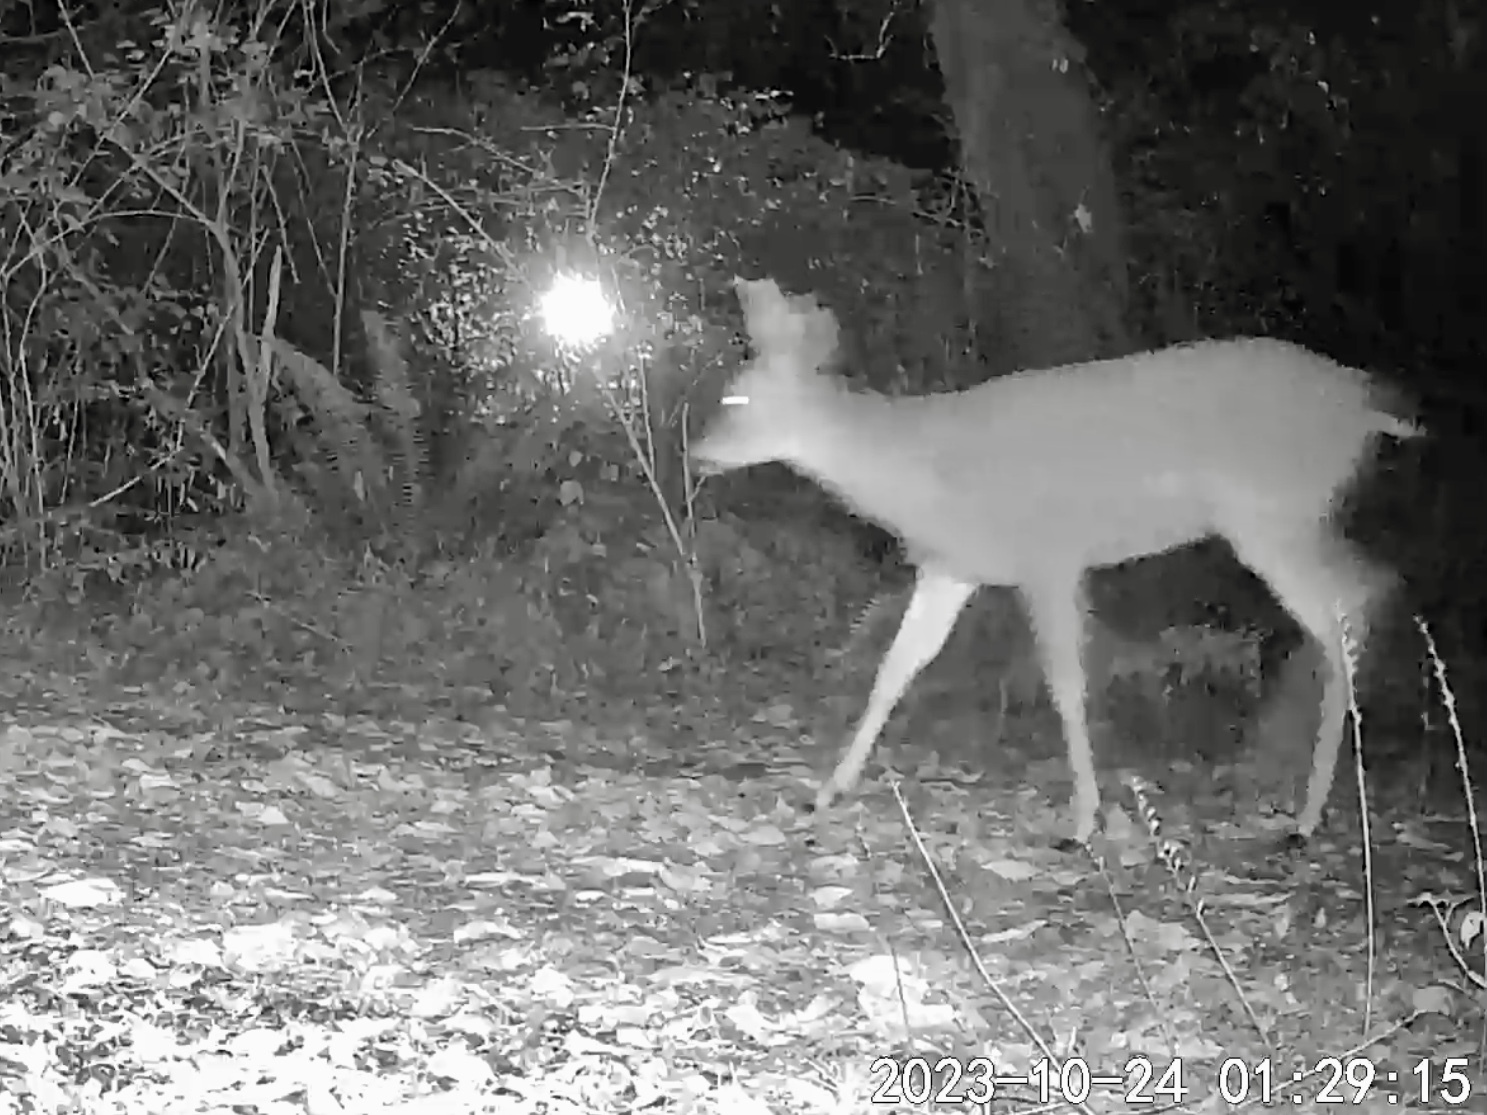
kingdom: Animalia
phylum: Chordata
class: Mammalia
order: Artiodactyla
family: Cervidae
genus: Odocoileus
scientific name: Odocoileus hemionus
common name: Mule deer
